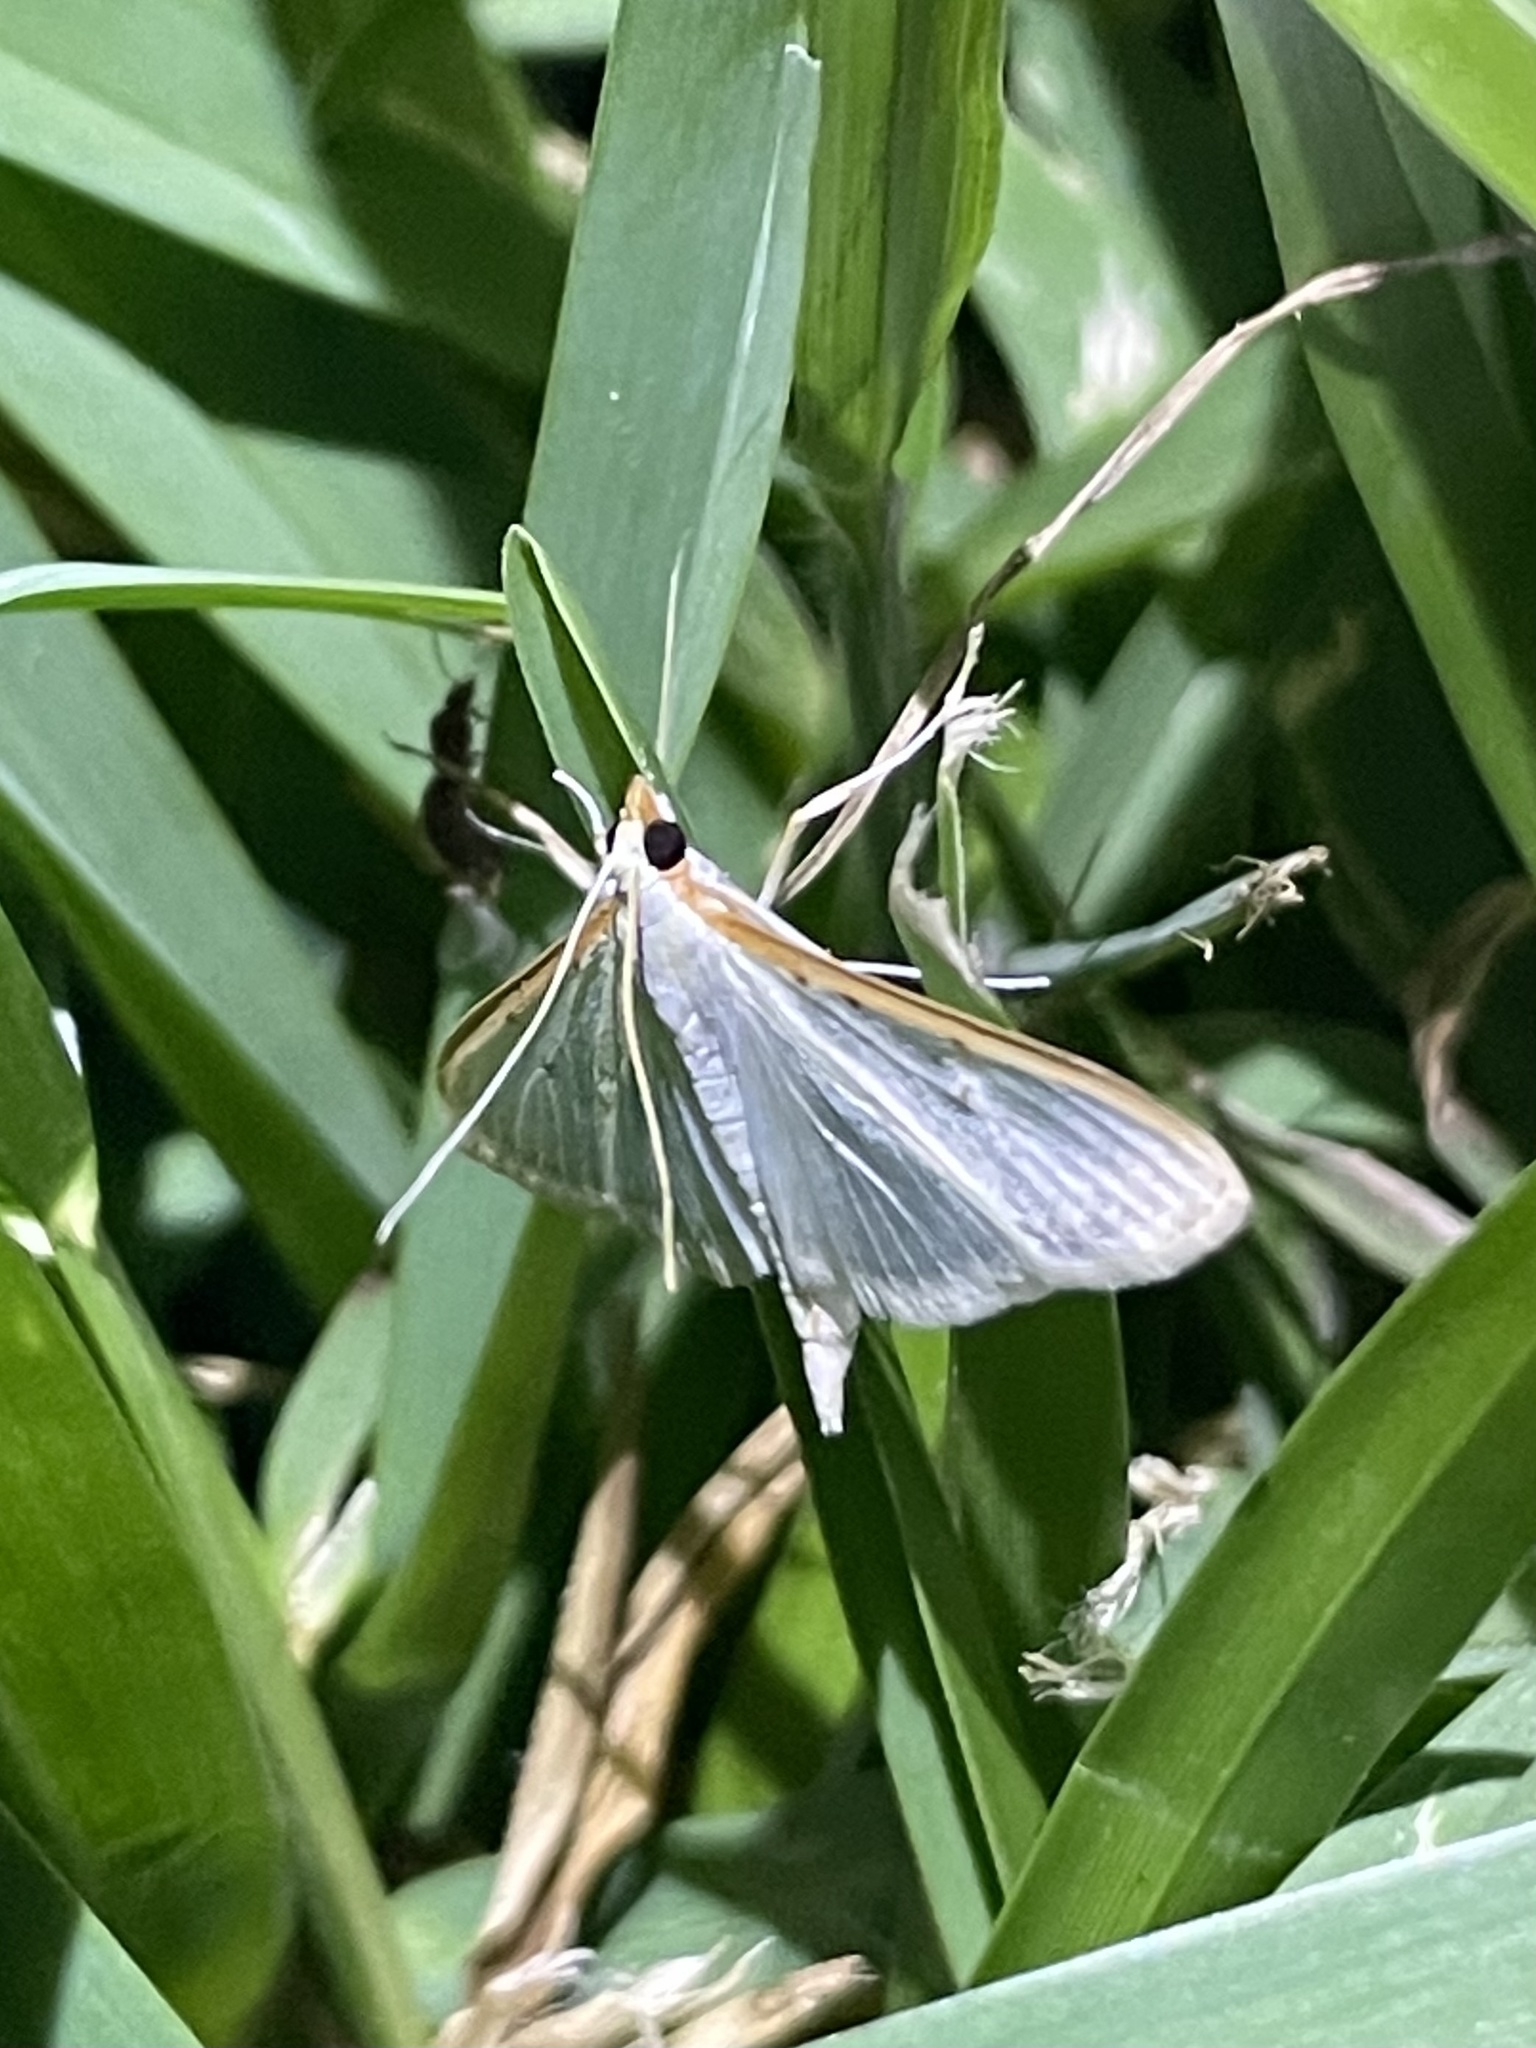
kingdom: Animalia
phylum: Arthropoda
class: Insecta
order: Lepidoptera
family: Crambidae
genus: Diaphania
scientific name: Diaphania costata
